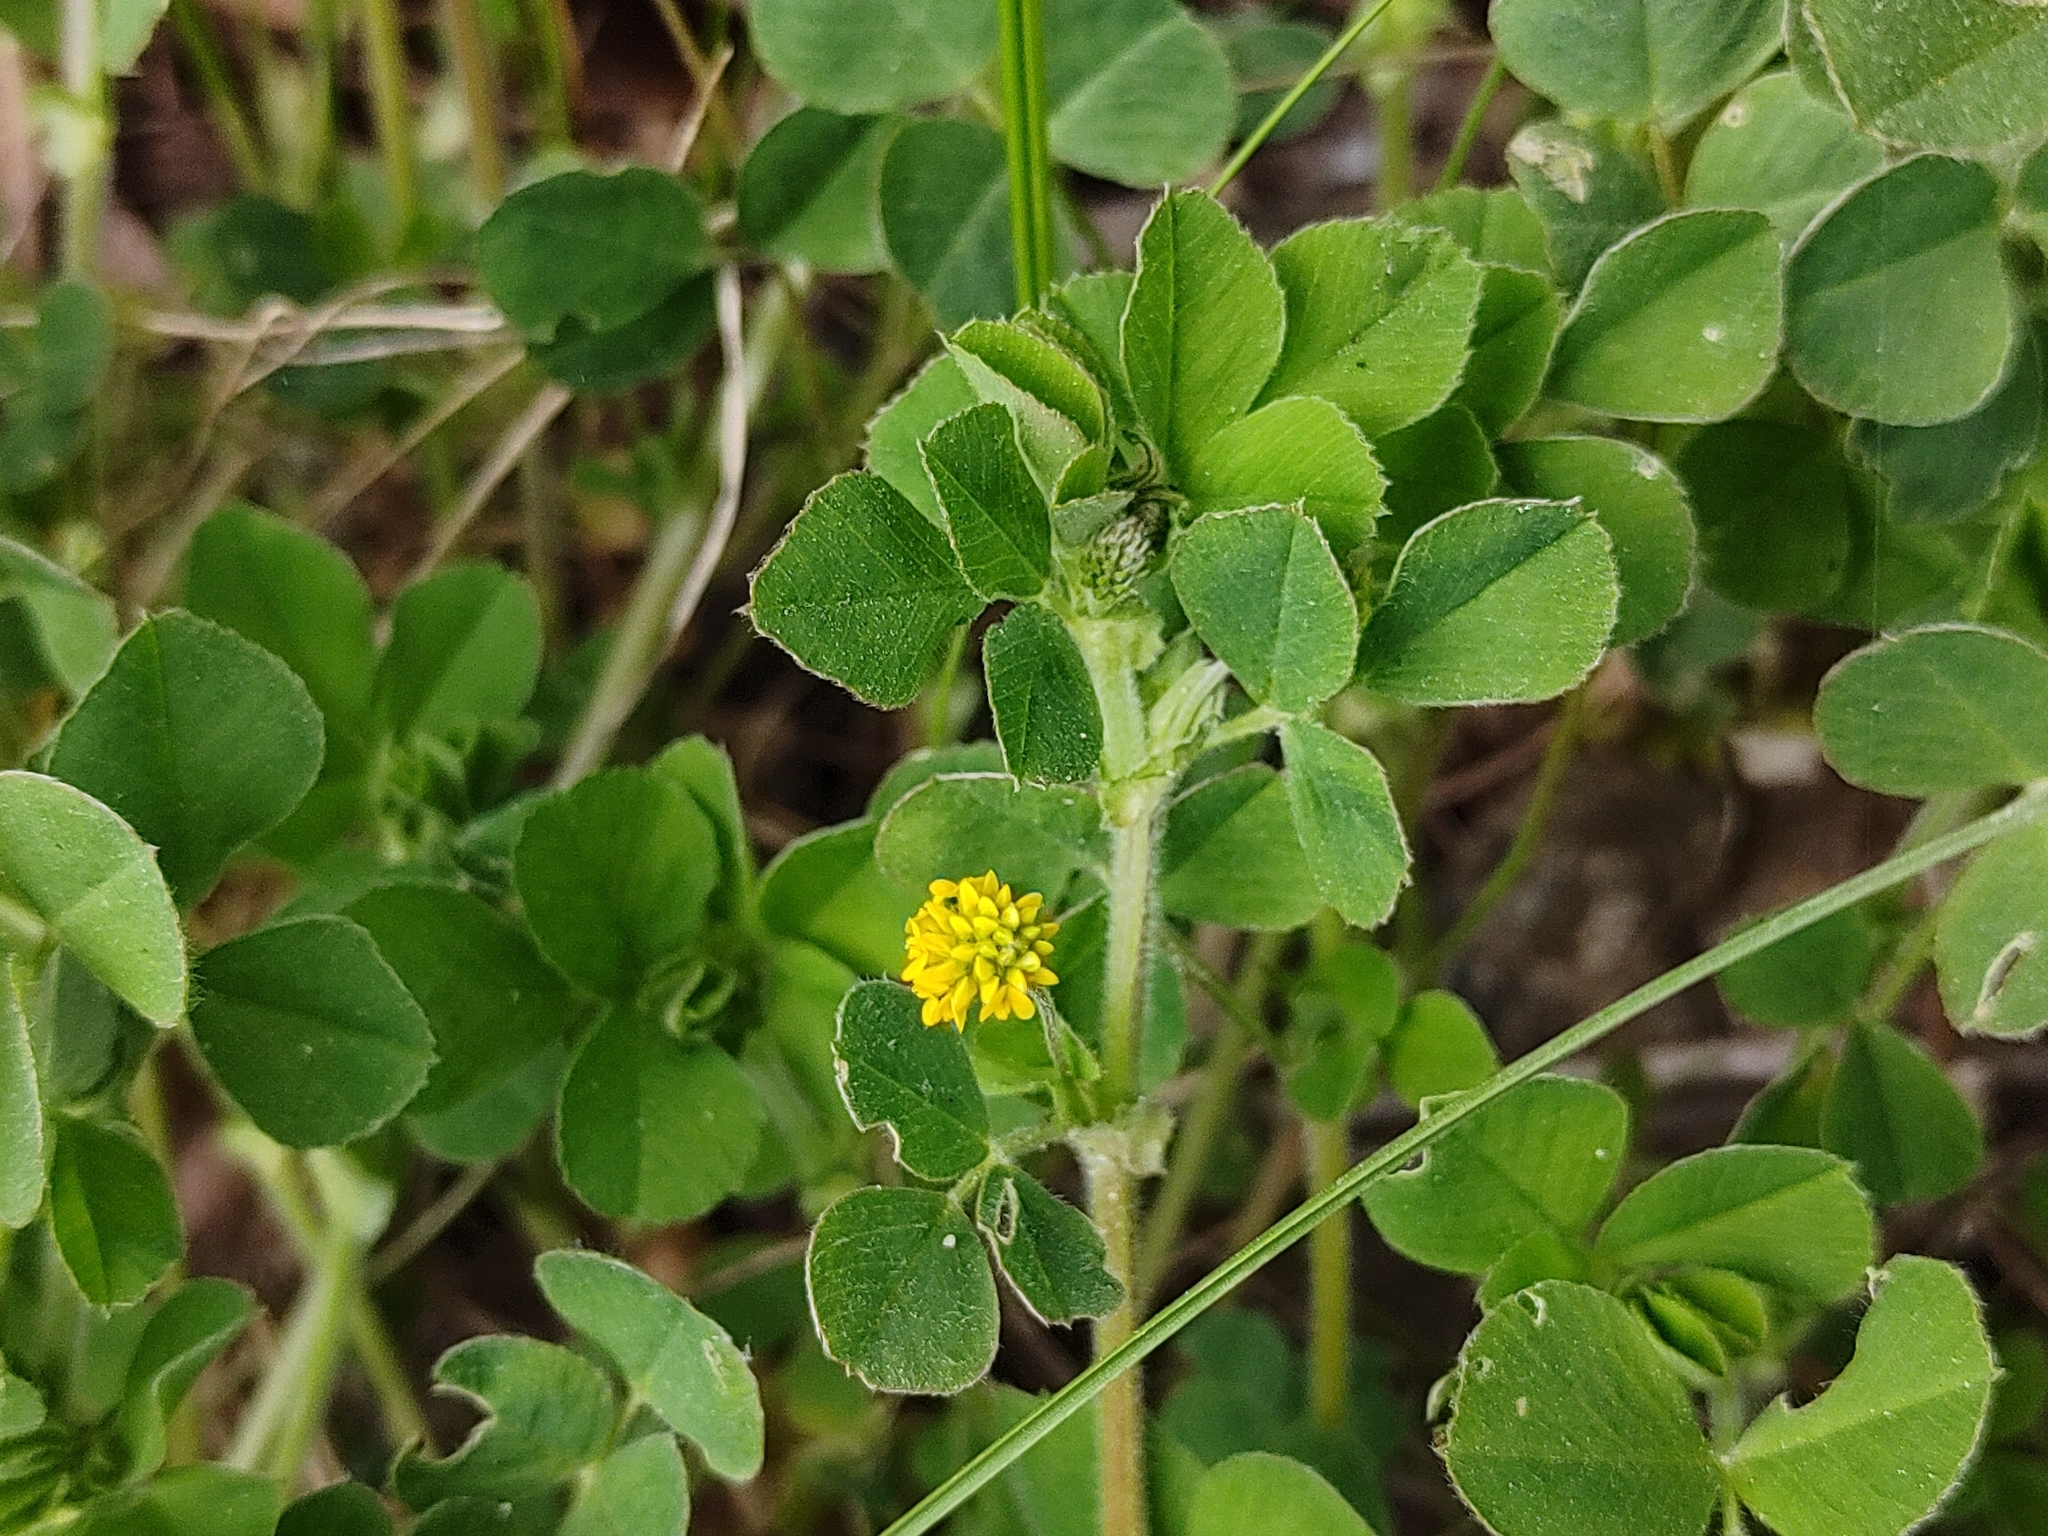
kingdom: Plantae
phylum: Tracheophyta
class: Magnoliopsida
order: Fabales
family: Fabaceae
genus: Medicago
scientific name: Medicago lupulina
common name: Black medick
